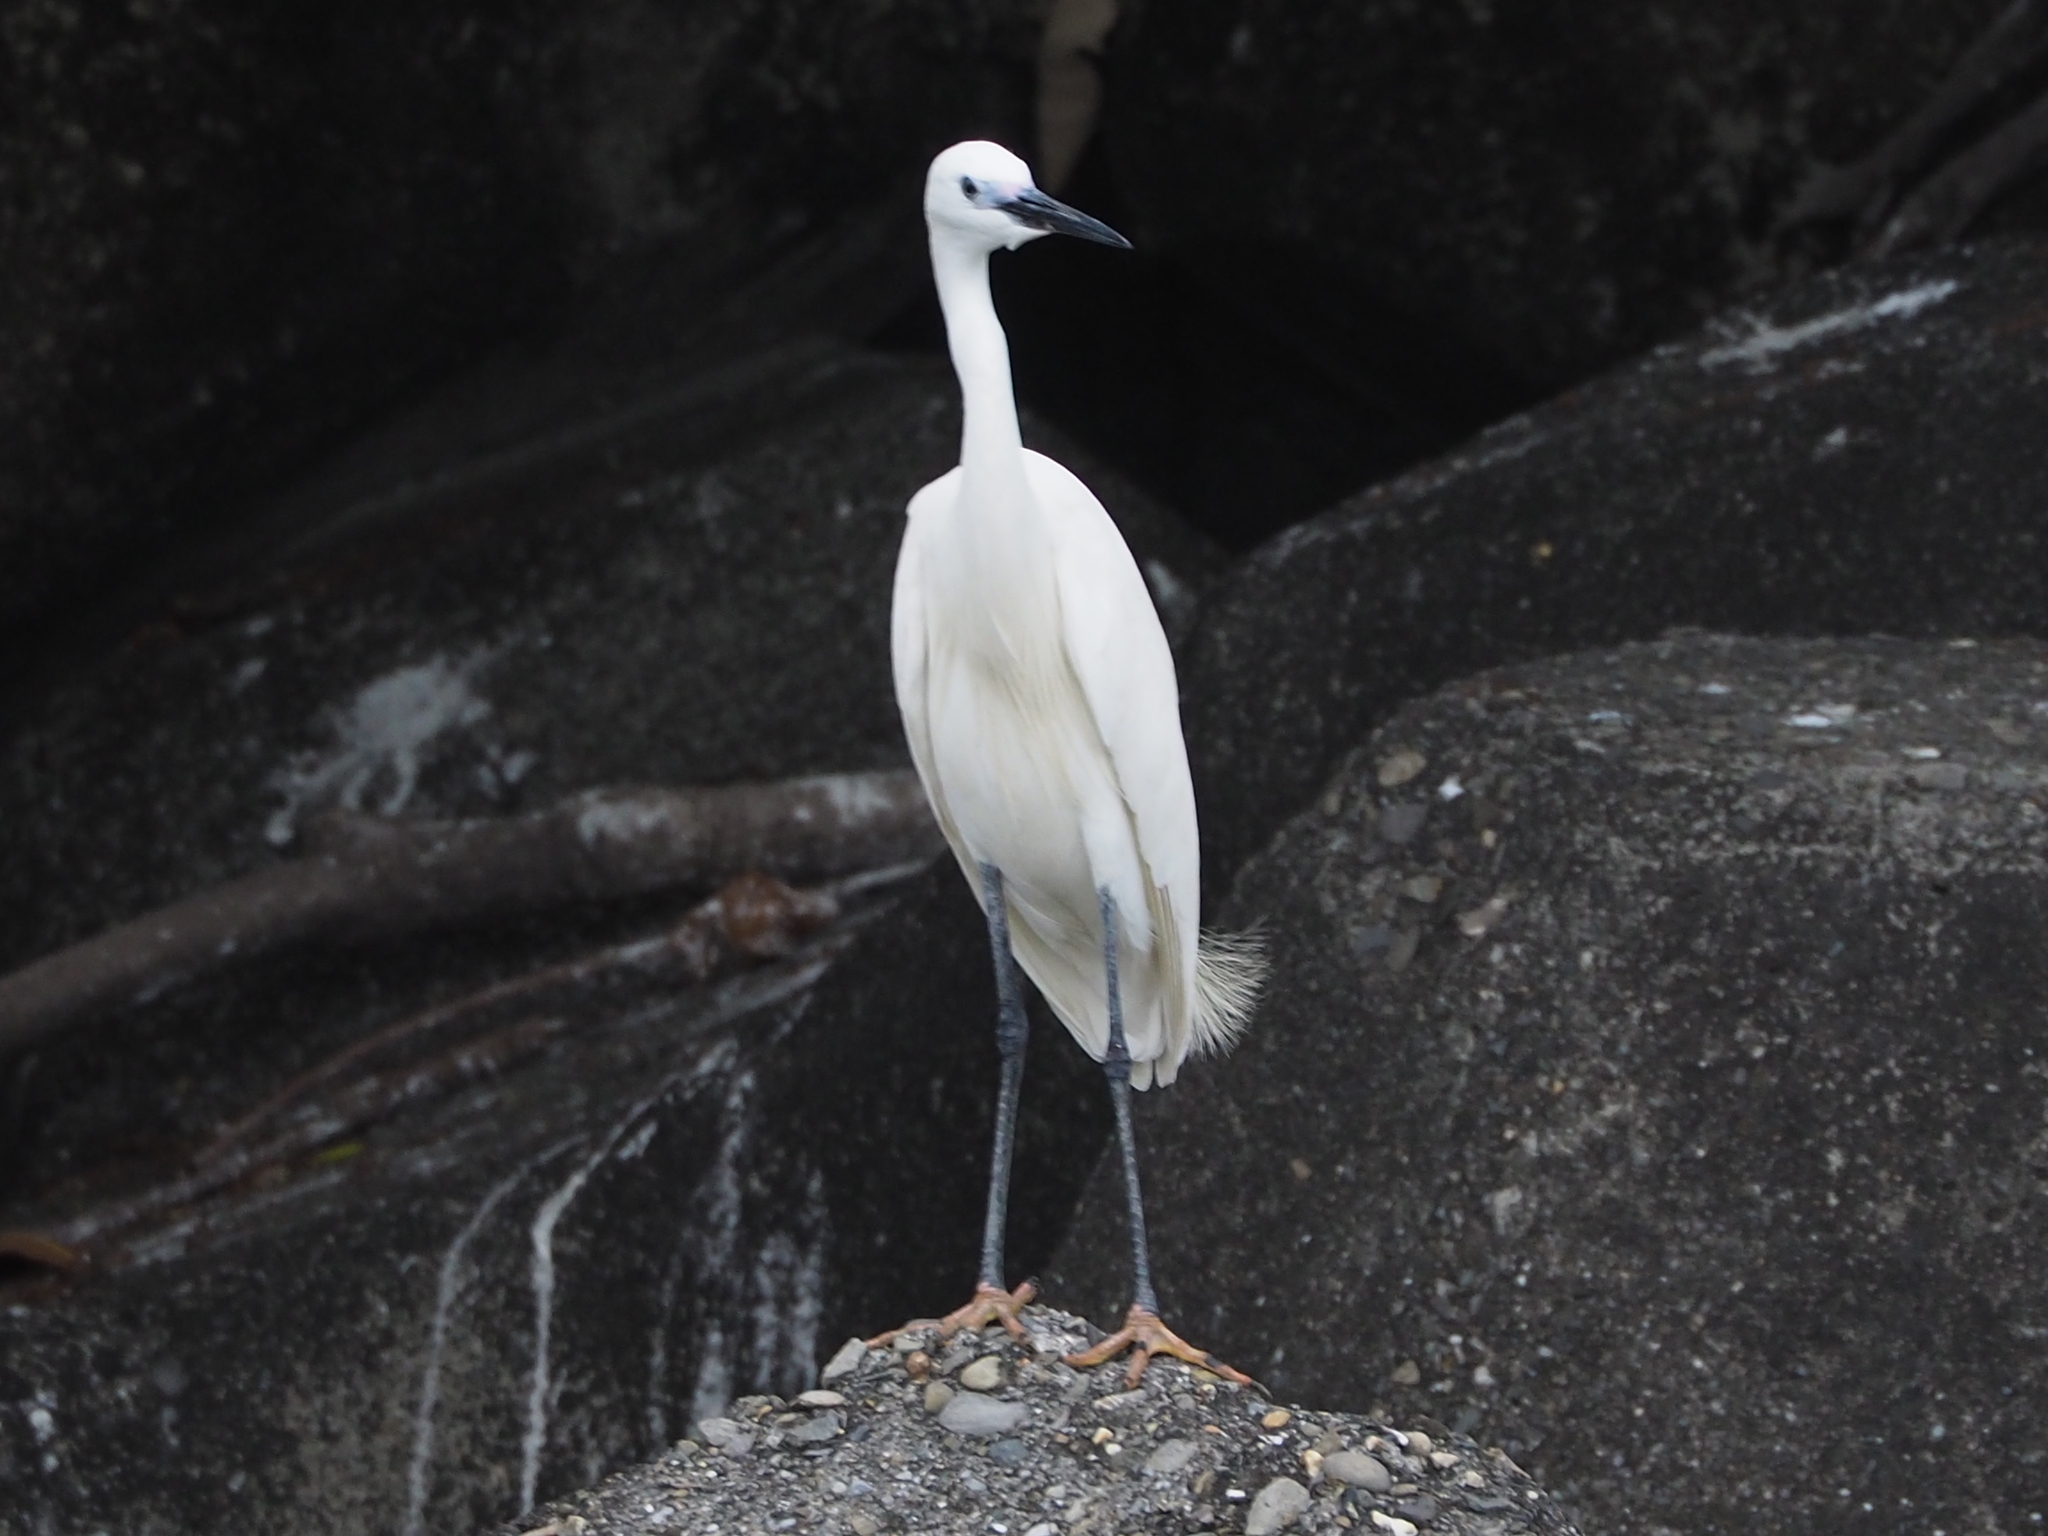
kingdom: Animalia
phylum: Chordata
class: Aves
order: Pelecaniformes
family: Ardeidae
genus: Egretta
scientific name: Egretta garzetta
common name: Little egret
